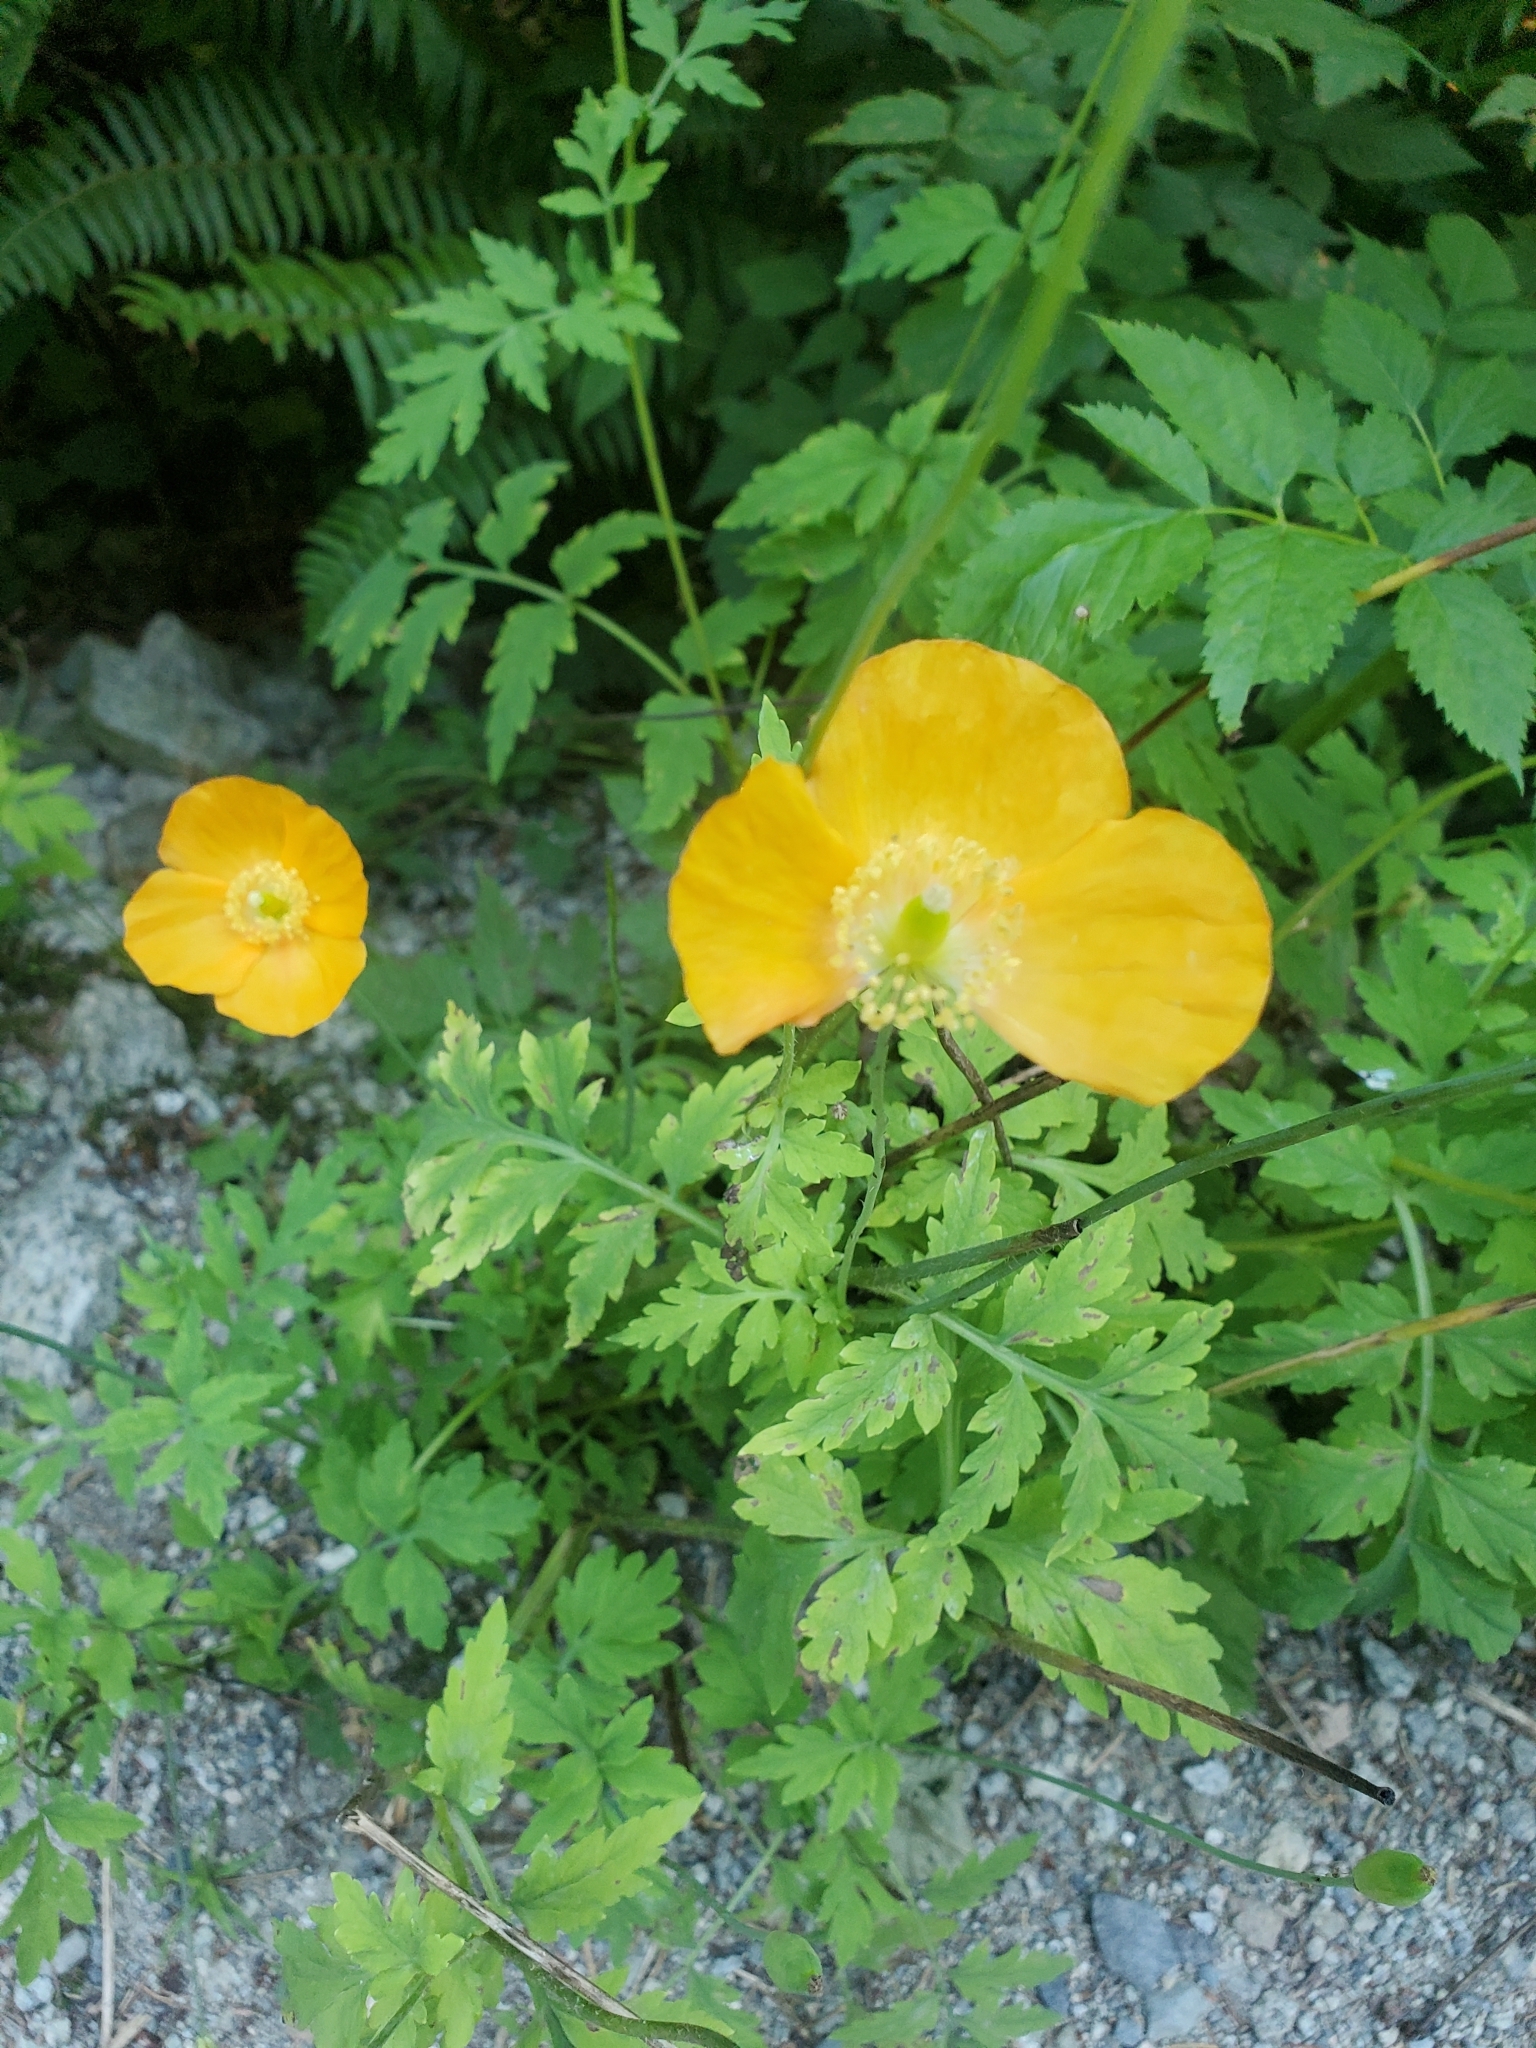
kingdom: Plantae
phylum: Tracheophyta
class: Magnoliopsida
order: Ranunculales
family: Papaveraceae
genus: Papaver
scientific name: Papaver cambricum
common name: Poppy
